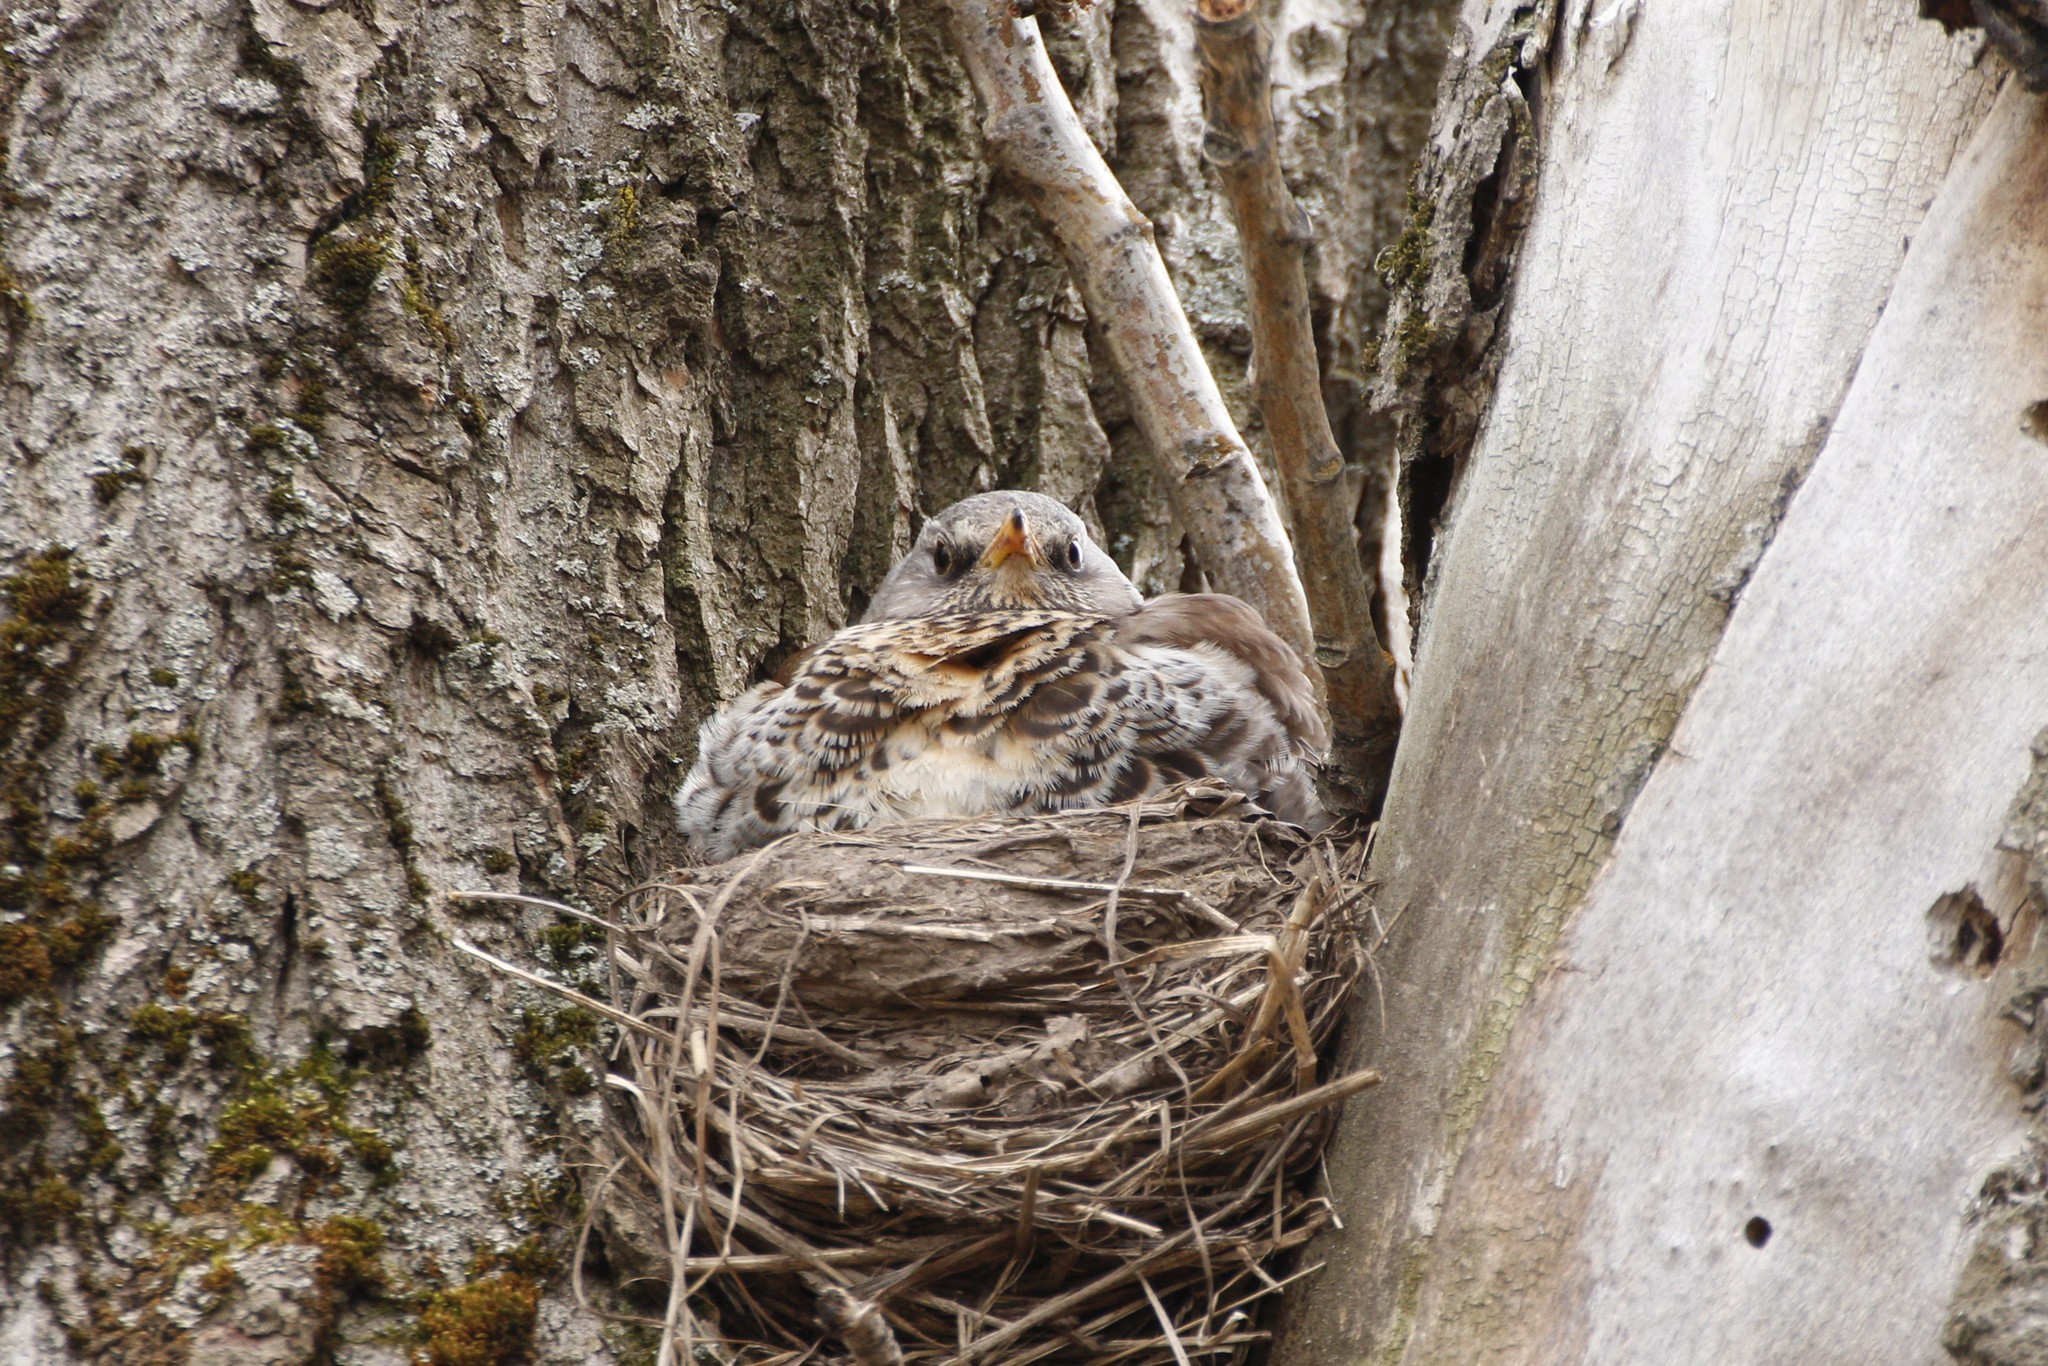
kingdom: Animalia
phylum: Chordata
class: Aves
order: Passeriformes
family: Turdidae
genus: Turdus
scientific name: Turdus pilaris
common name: Fieldfare
